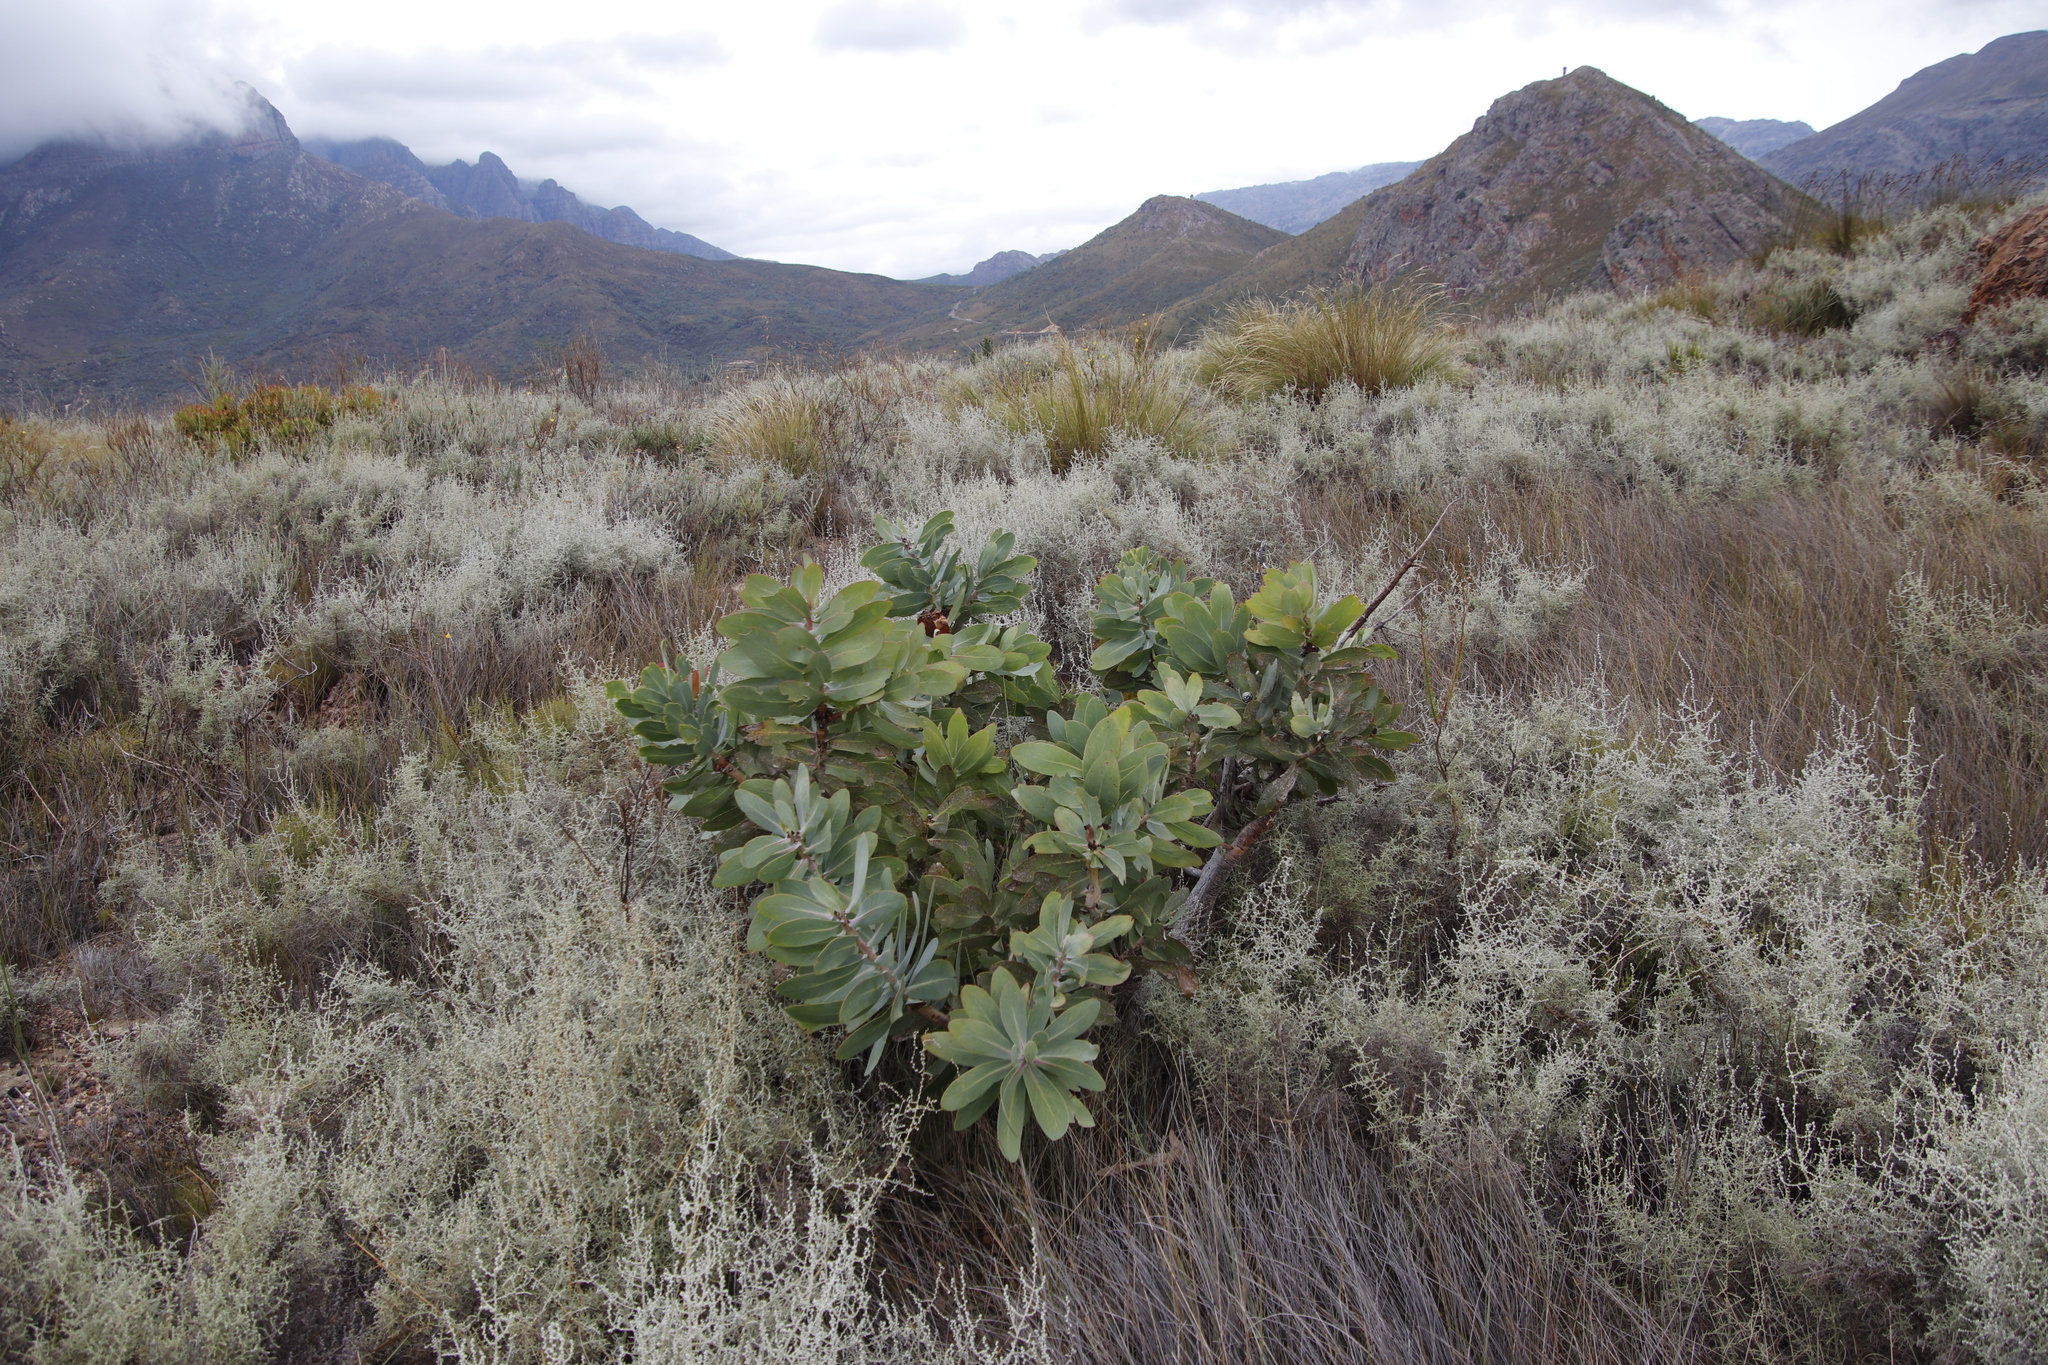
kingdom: Plantae
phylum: Tracheophyta
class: Magnoliopsida
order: Asterales
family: Asteraceae
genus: Seriphium
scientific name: Seriphium plumosum
